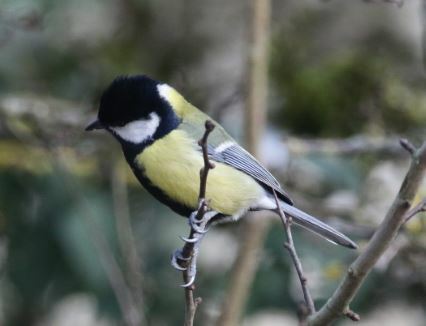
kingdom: Animalia
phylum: Chordata
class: Aves
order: Passeriformes
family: Paridae
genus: Parus
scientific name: Parus major
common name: Great tit
